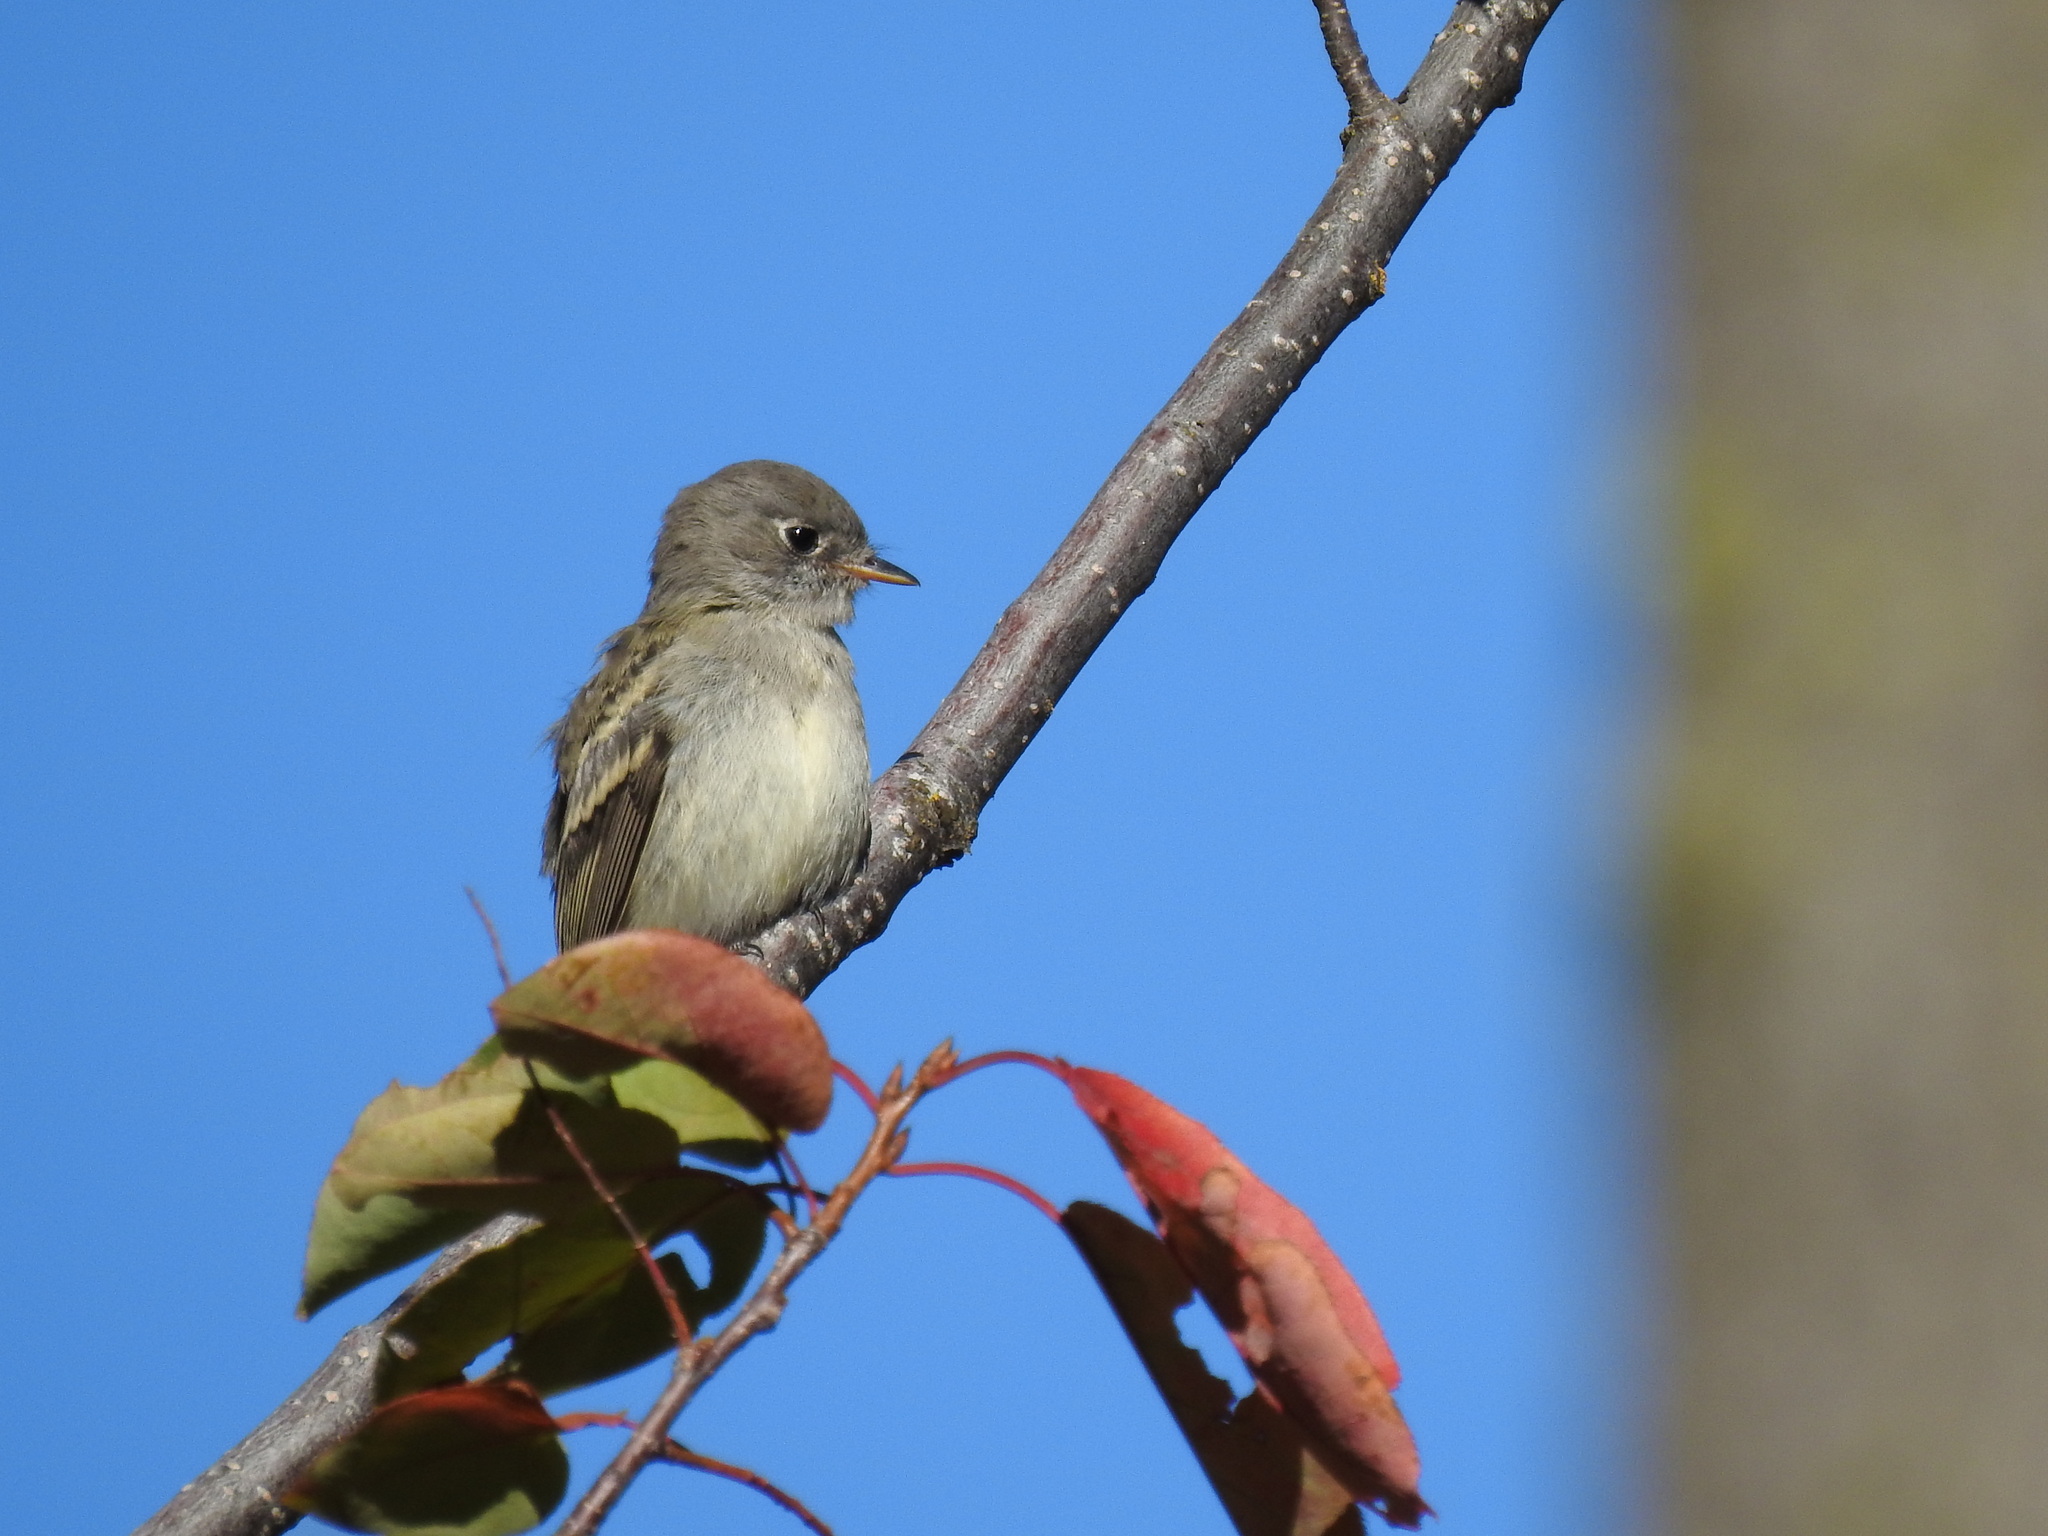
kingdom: Animalia
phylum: Chordata
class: Aves
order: Passeriformes
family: Tyrannidae
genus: Empidonax
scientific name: Empidonax oberholseri
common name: Dusky flycatcher
